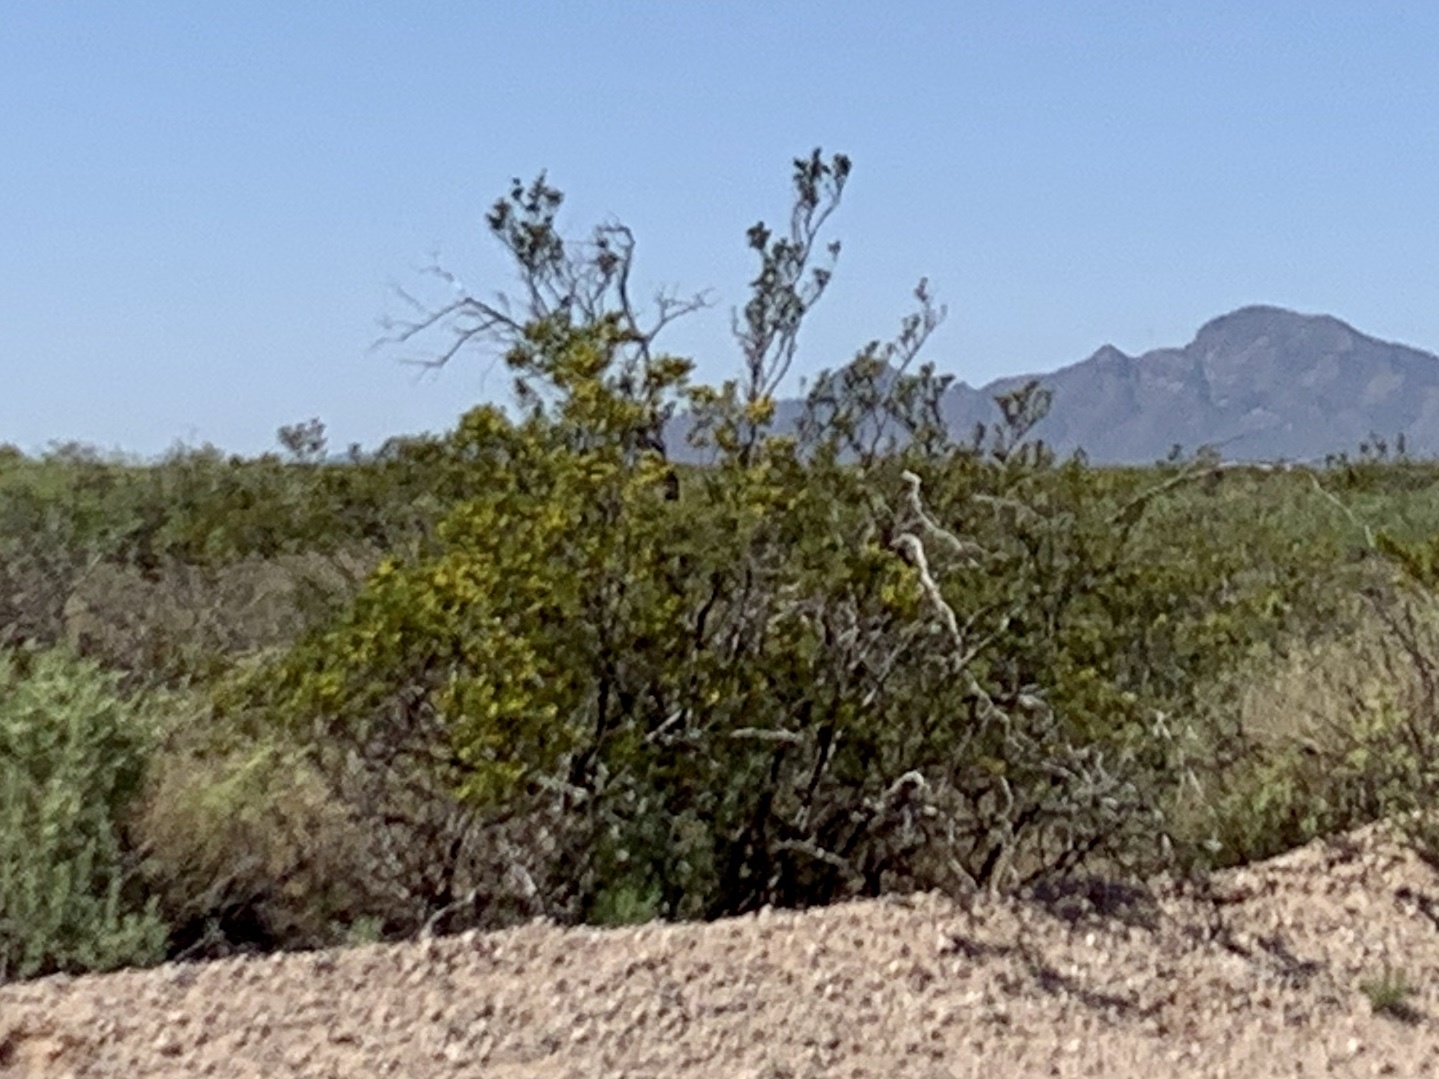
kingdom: Plantae
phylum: Tracheophyta
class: Magnoliopsida
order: Zygophyllales
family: Zygophyllaceae
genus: Larrea
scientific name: Larrea tridentata
